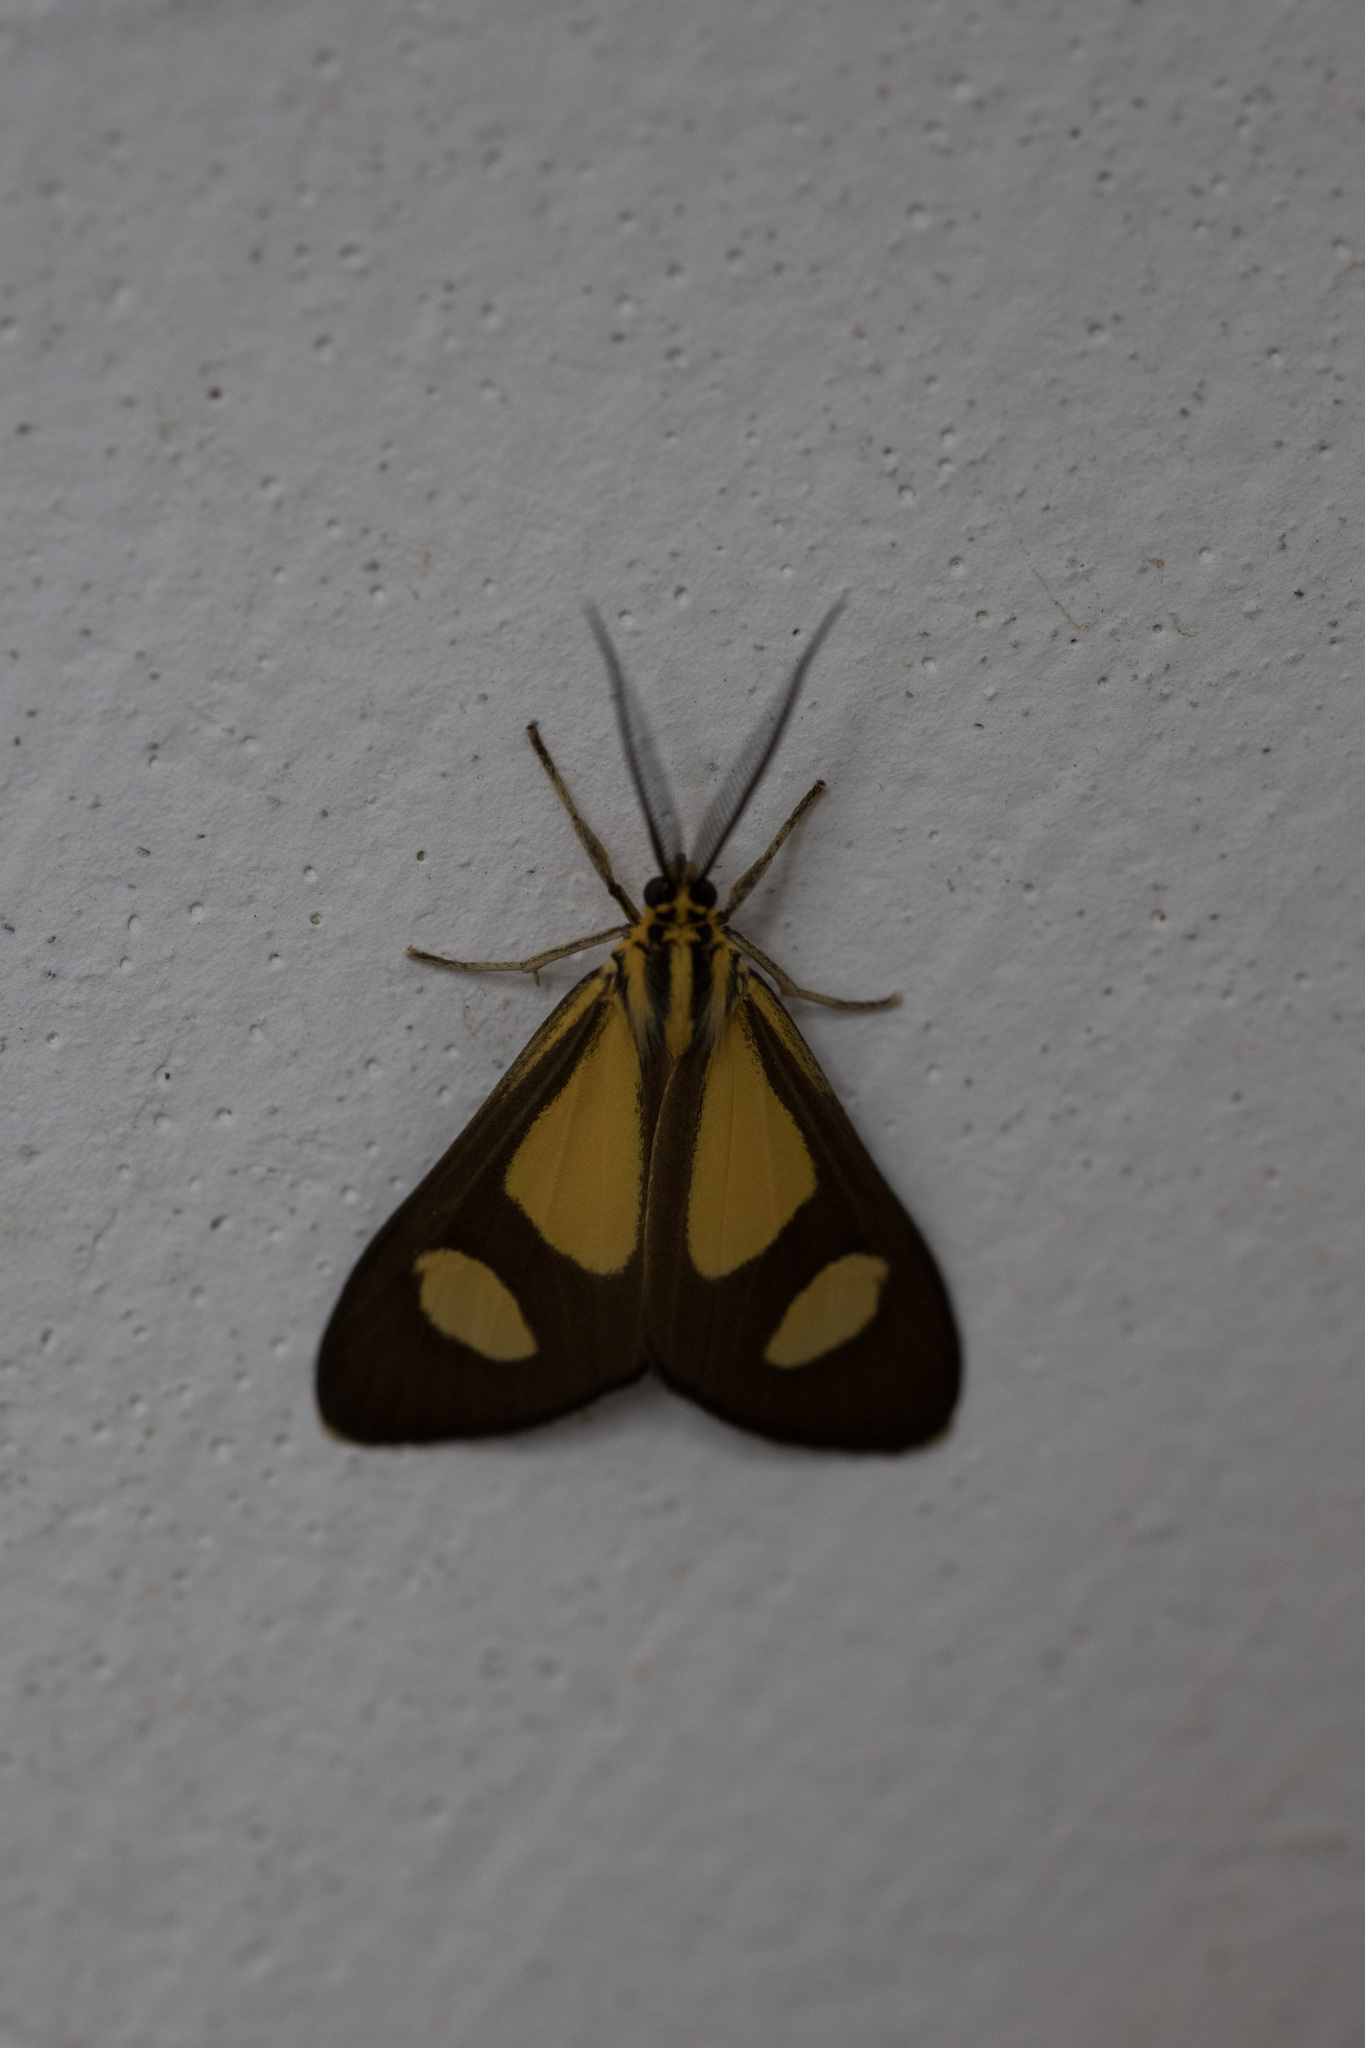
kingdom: Animalia
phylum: Arthropoda
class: Insecta
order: Lepidoptera
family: Notodontidae
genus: Phaeochlaena
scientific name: Phaeochlaena amazonica
